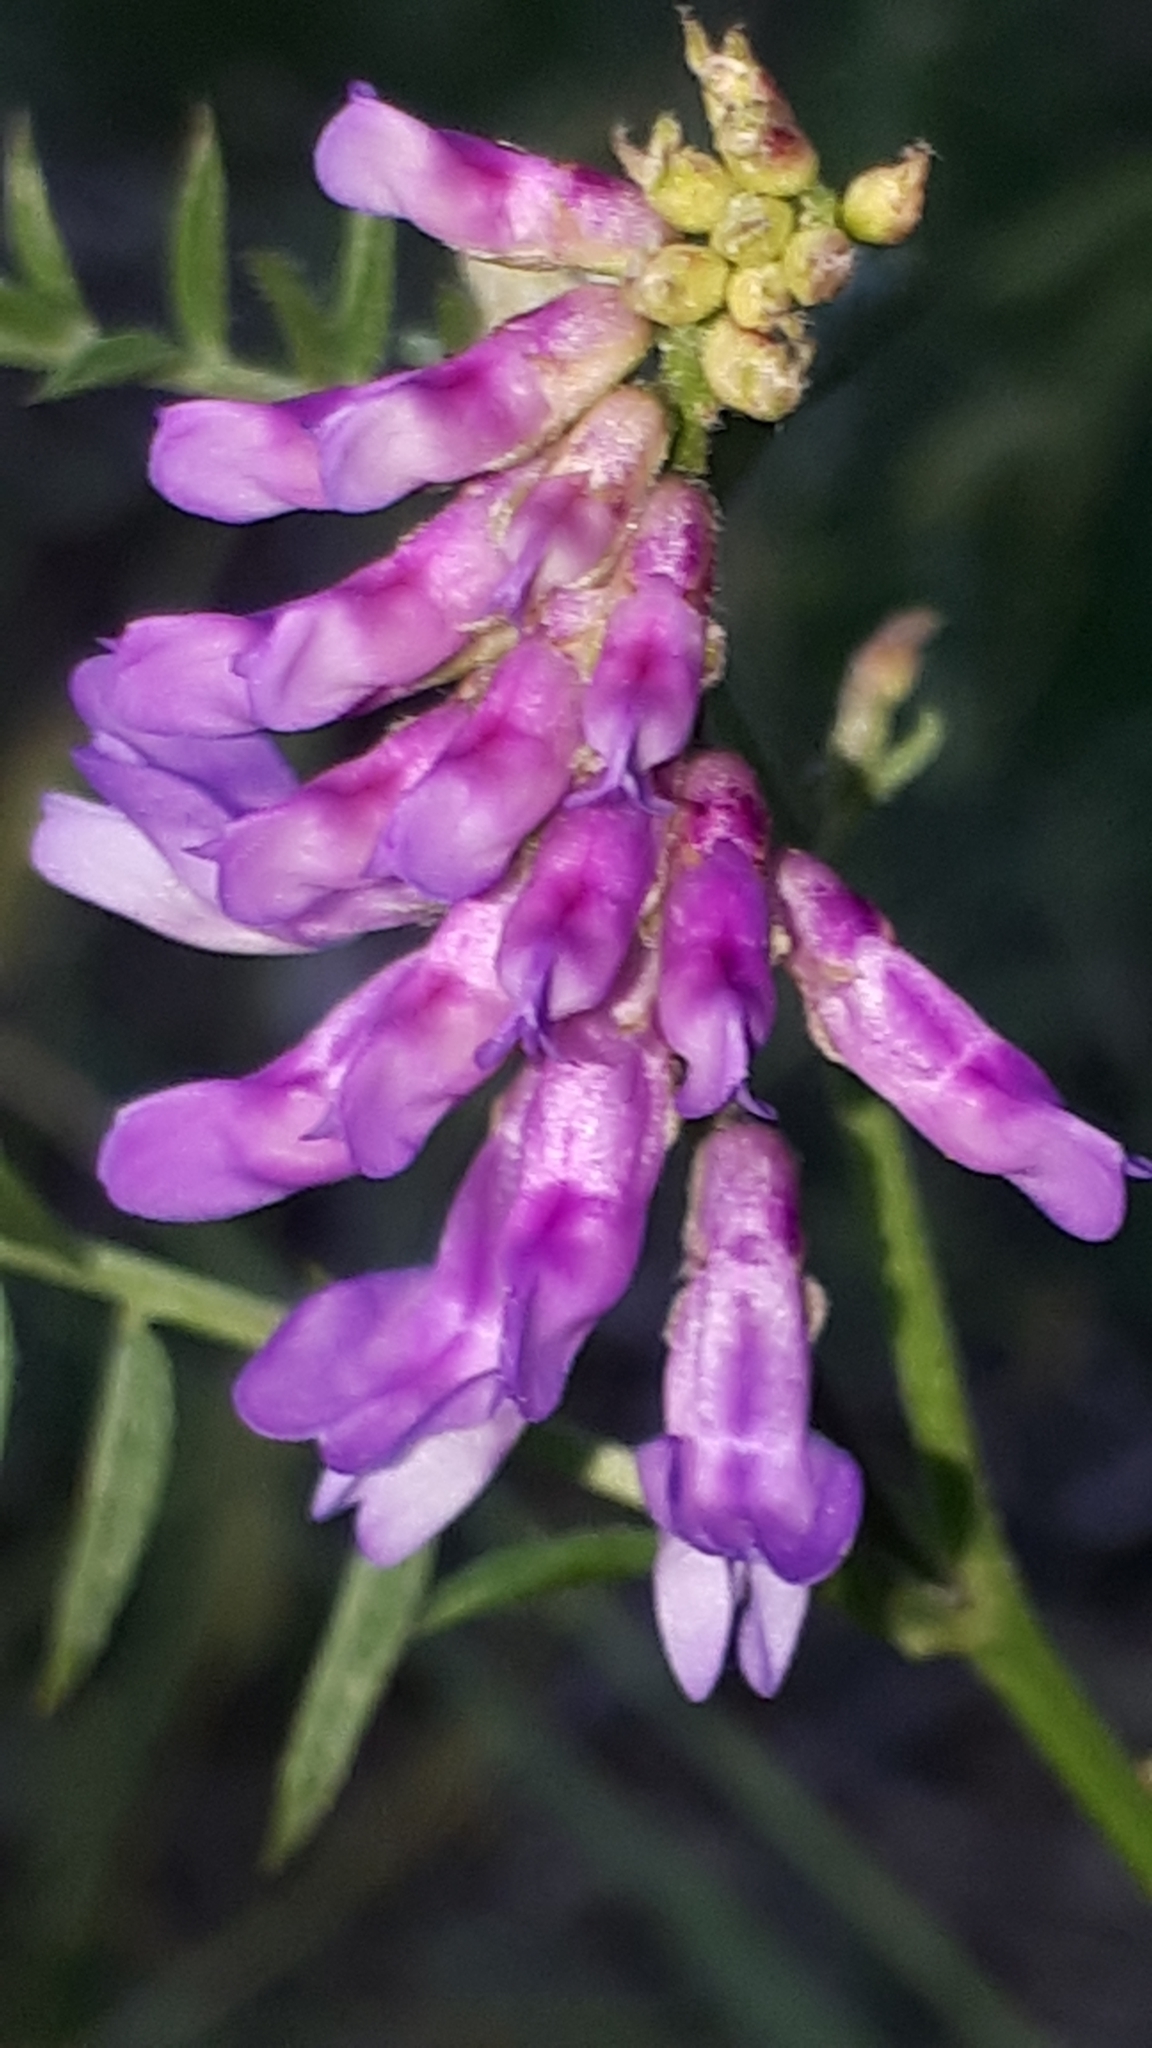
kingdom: Plantae
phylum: Tracheophyta
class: Magnoliopsida
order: Fabales
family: Fabaceae
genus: Vicia
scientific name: Vicia villosa
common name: Fodder vetch
